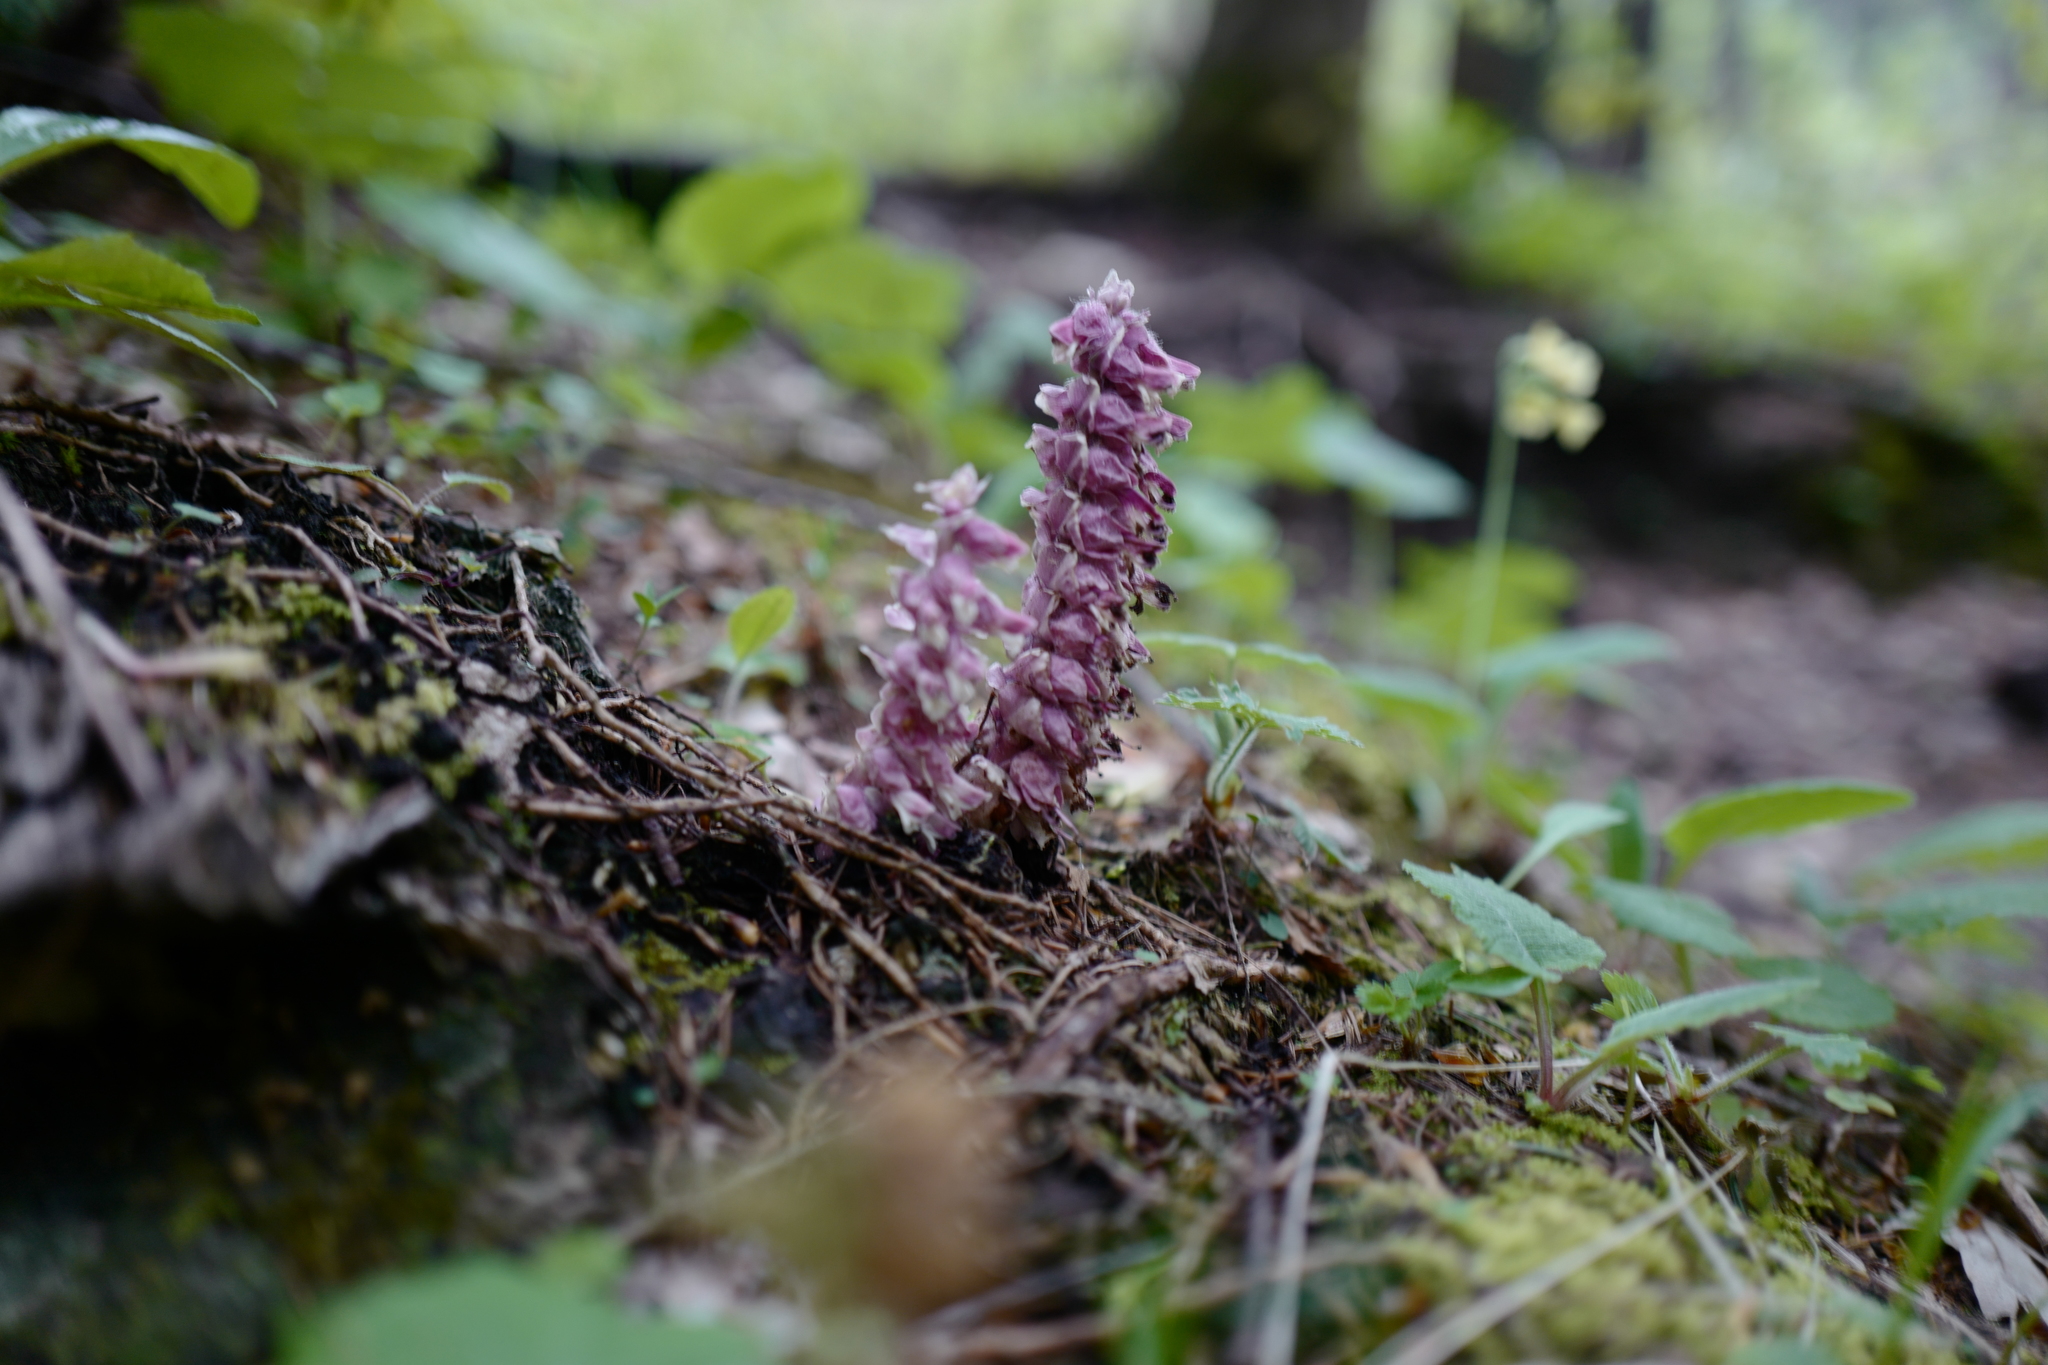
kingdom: Plantae
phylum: Tracheophyta
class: Magnoliopsida
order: Lamiales
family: Orobanchaceae
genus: Lathraea
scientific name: Lathraea squamaria
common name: Toothwort
